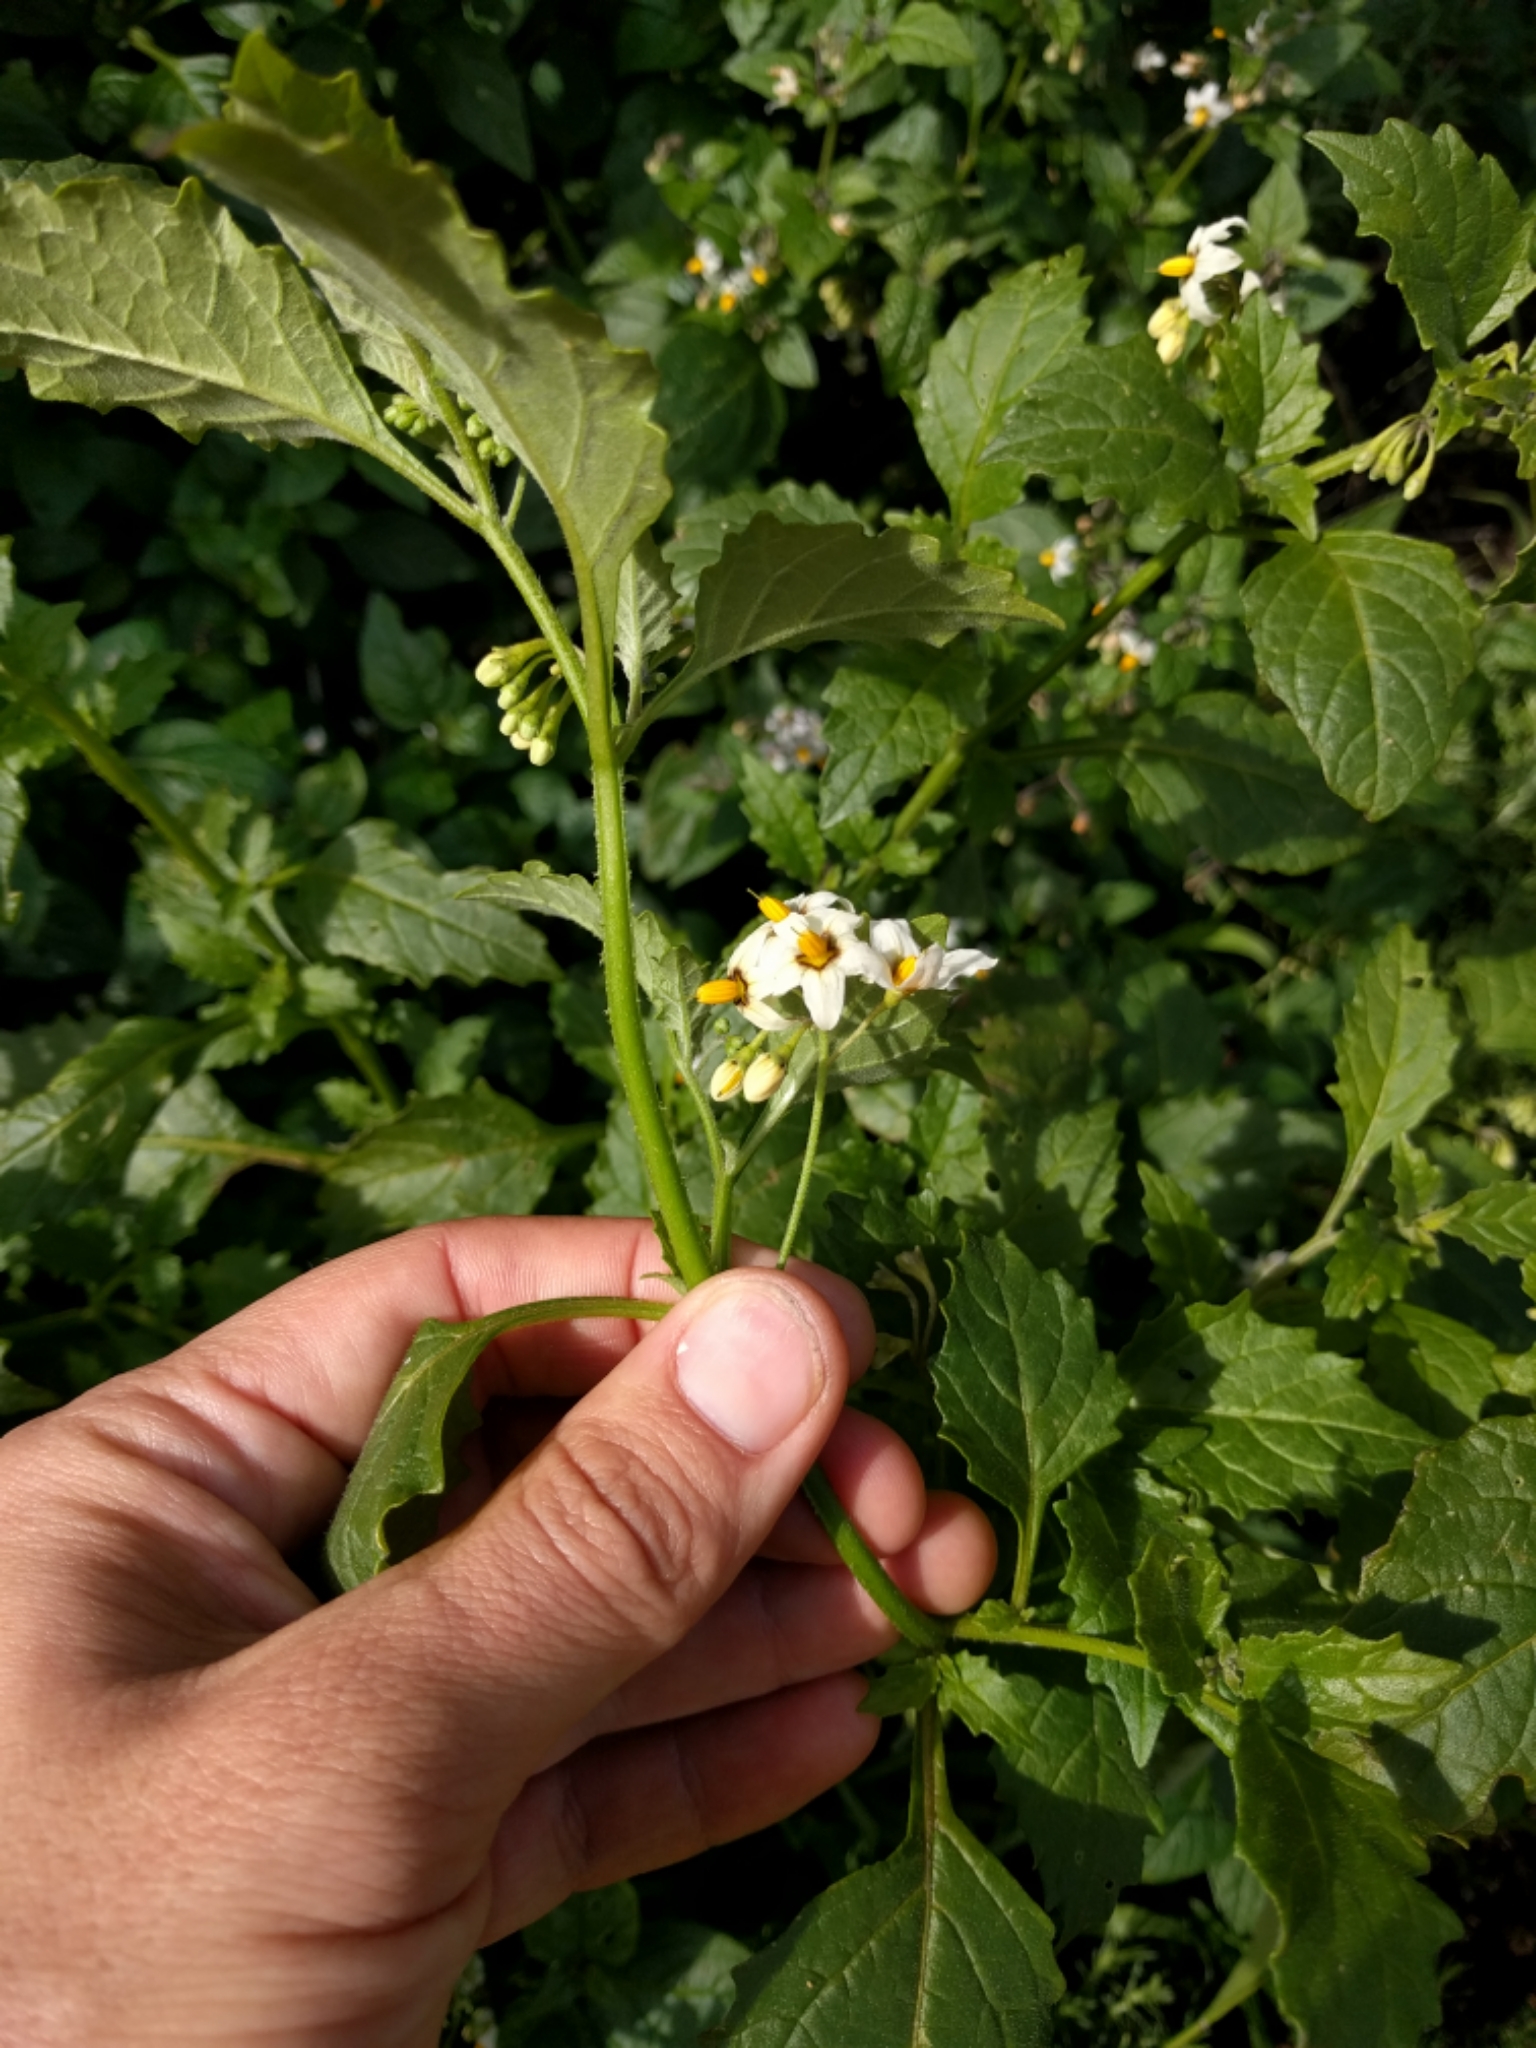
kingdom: Plantae
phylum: Tracheophyta
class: Magnoliopsida
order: Solanales
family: Solanaceae
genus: Solanum
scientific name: Solanum douglasii
